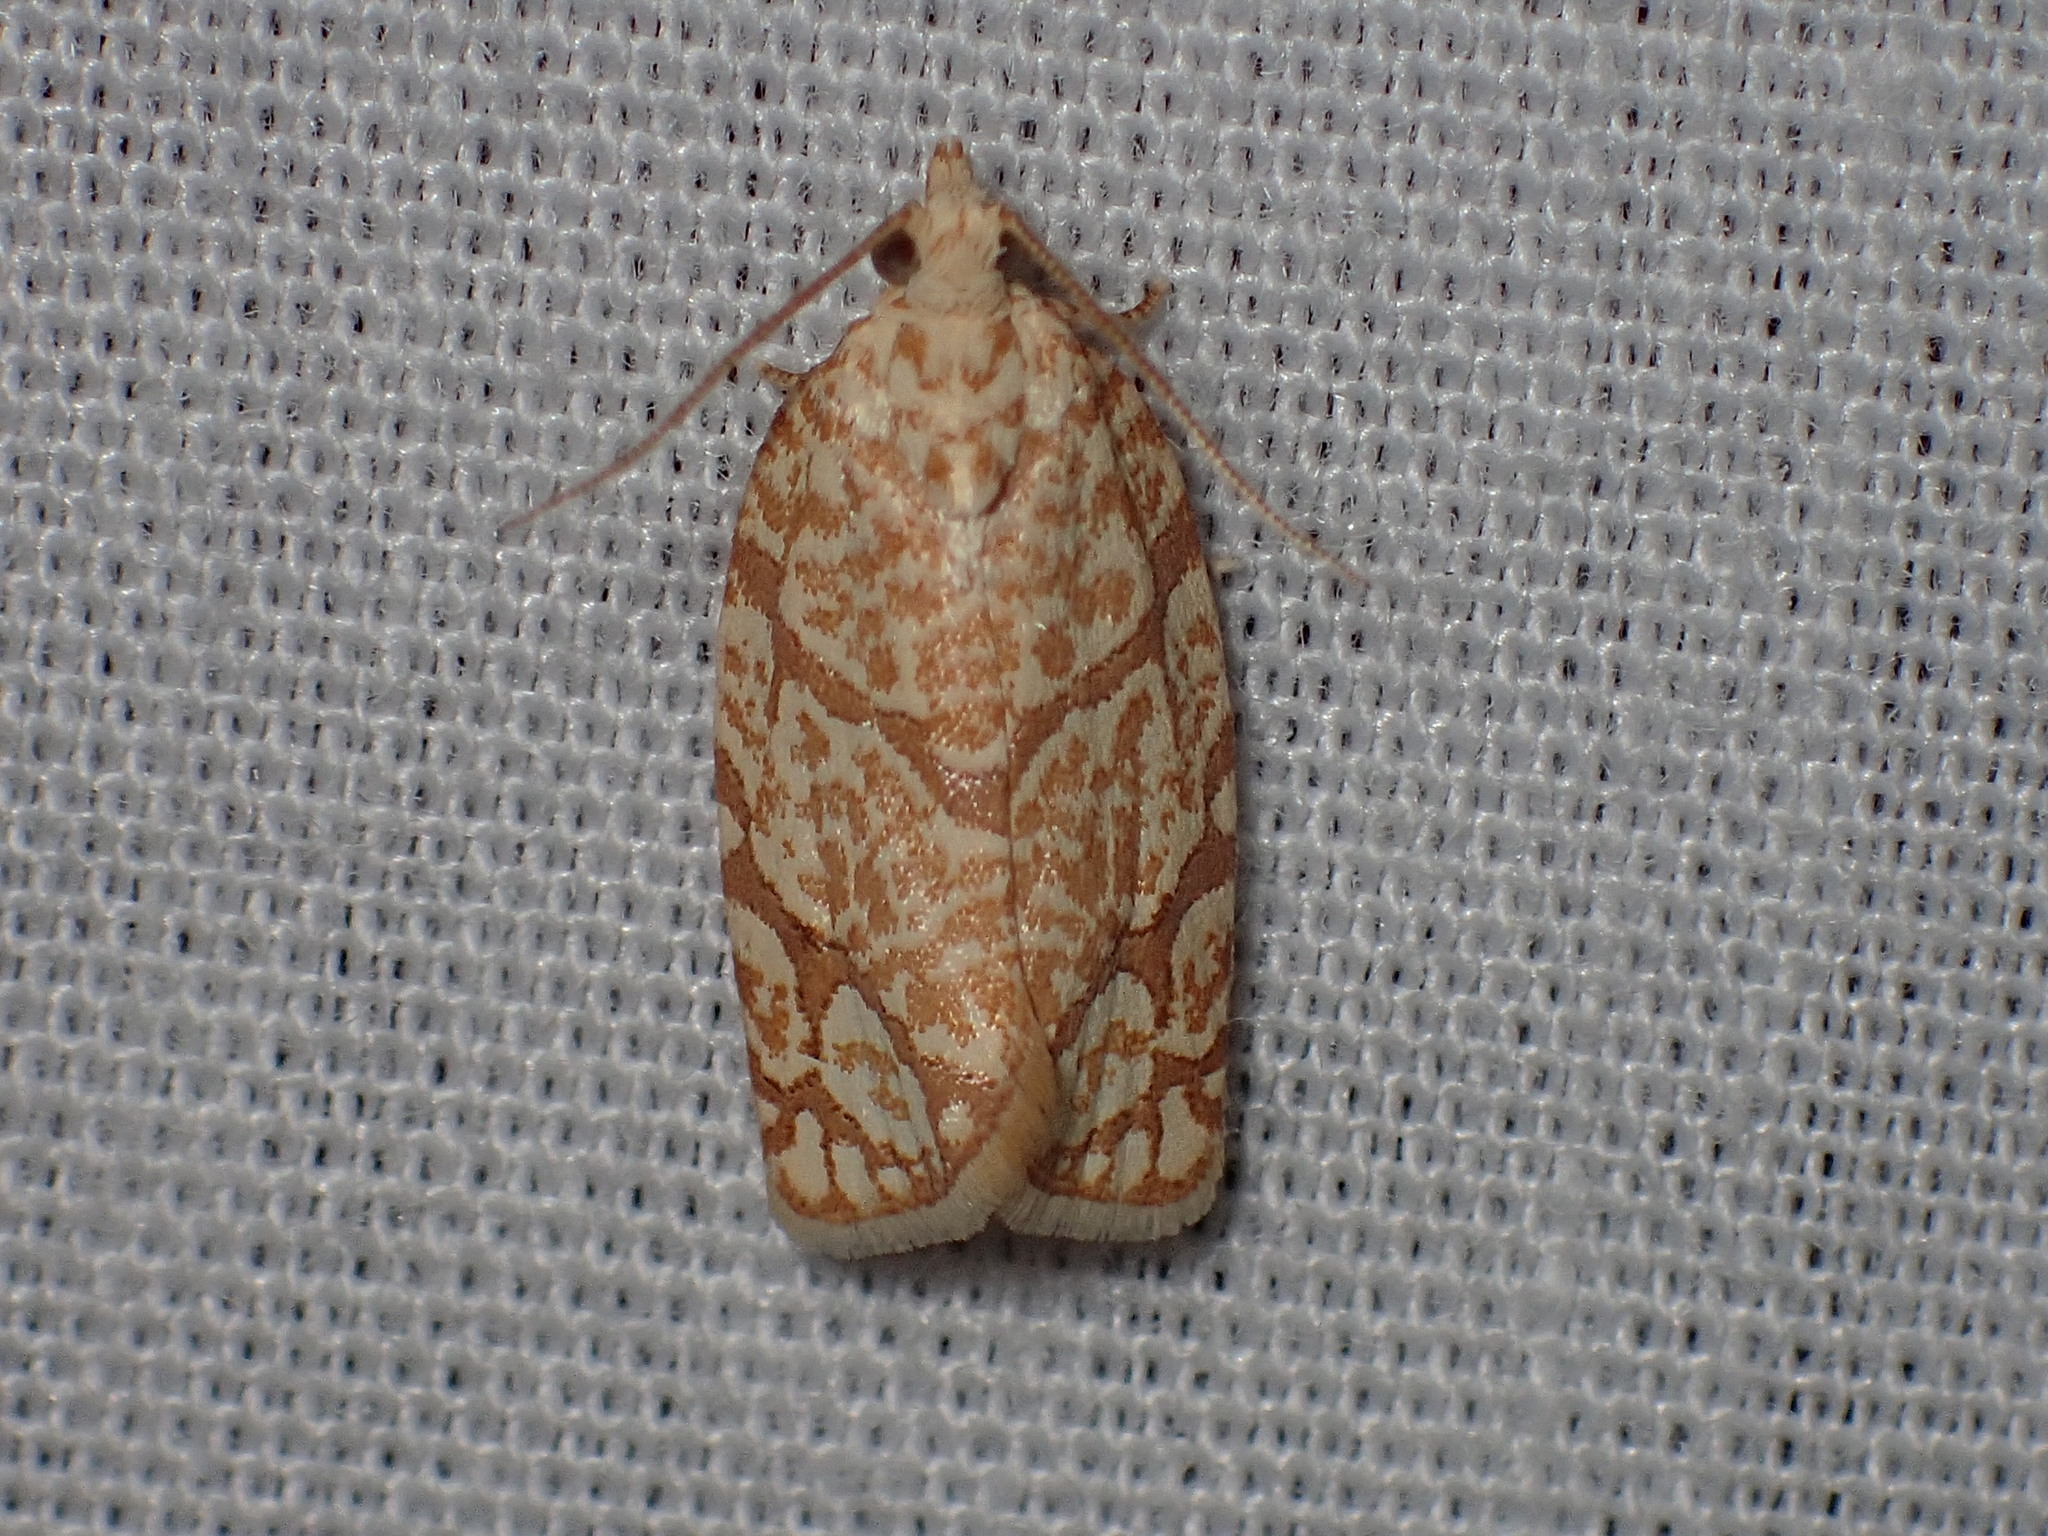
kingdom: Animalia
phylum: Arthropoda
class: Insecta
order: Lepidoptera
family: Tortricidae
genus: Argyrotaenia
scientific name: Argyrotaenia quercifoliana
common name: Yellow-winged oak leafroller moth
